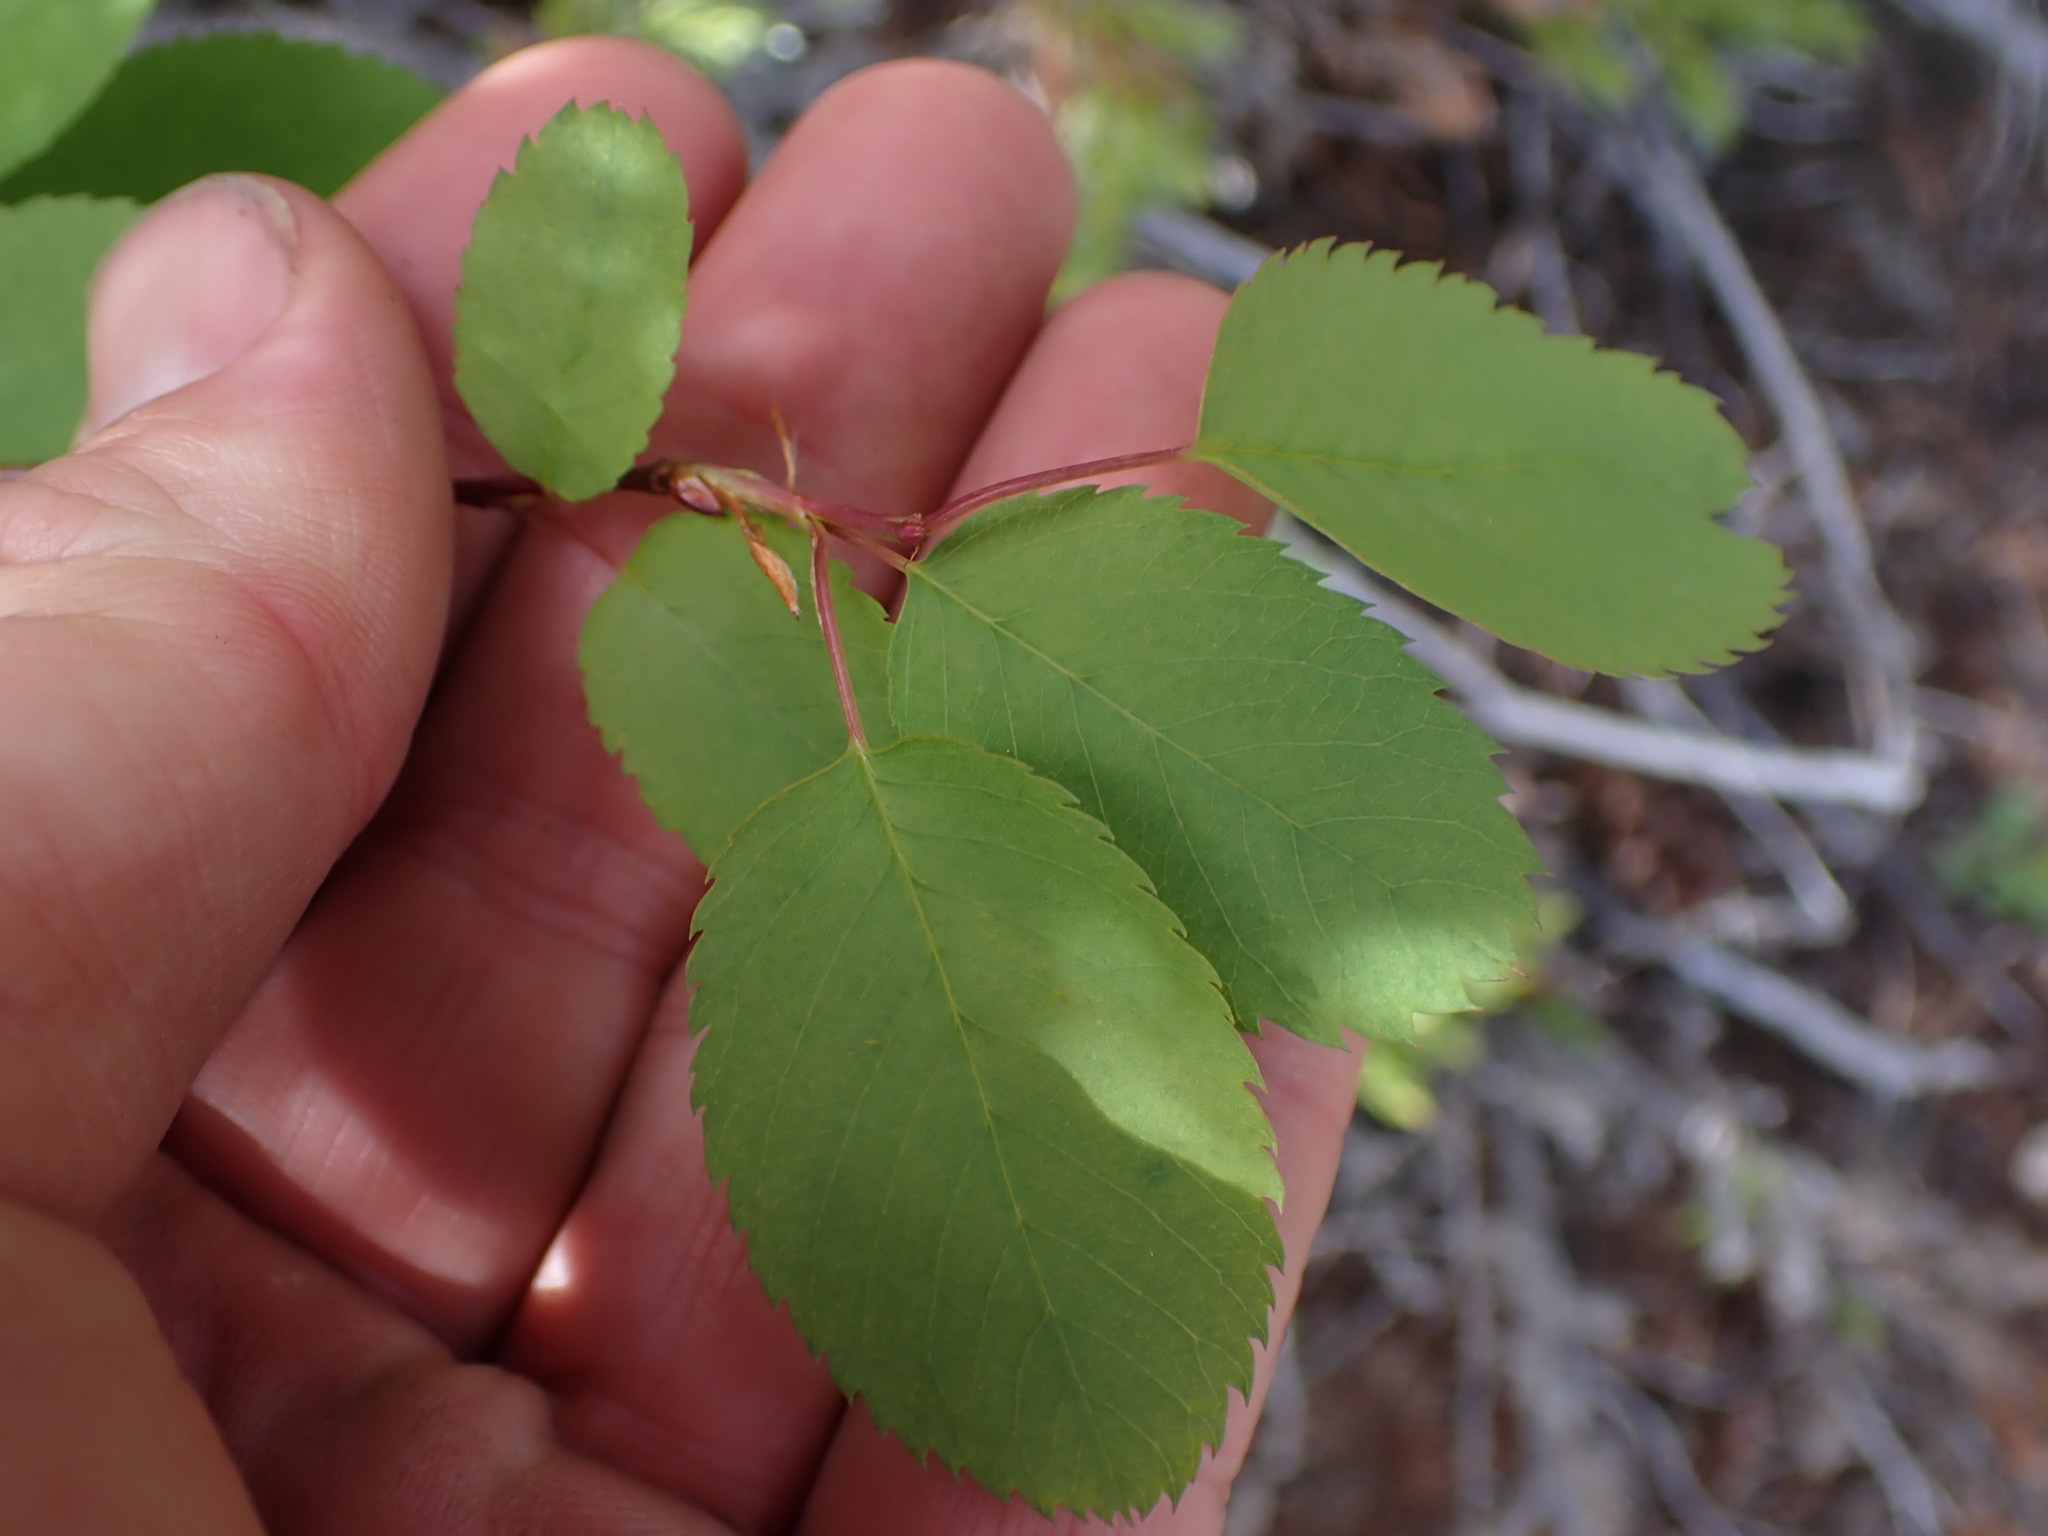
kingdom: Plantae
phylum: Tracheophyta
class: Magnoliopsida
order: Rosales
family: Rosaceae
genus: Amelanchier
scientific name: Amelanchier alnifolia
